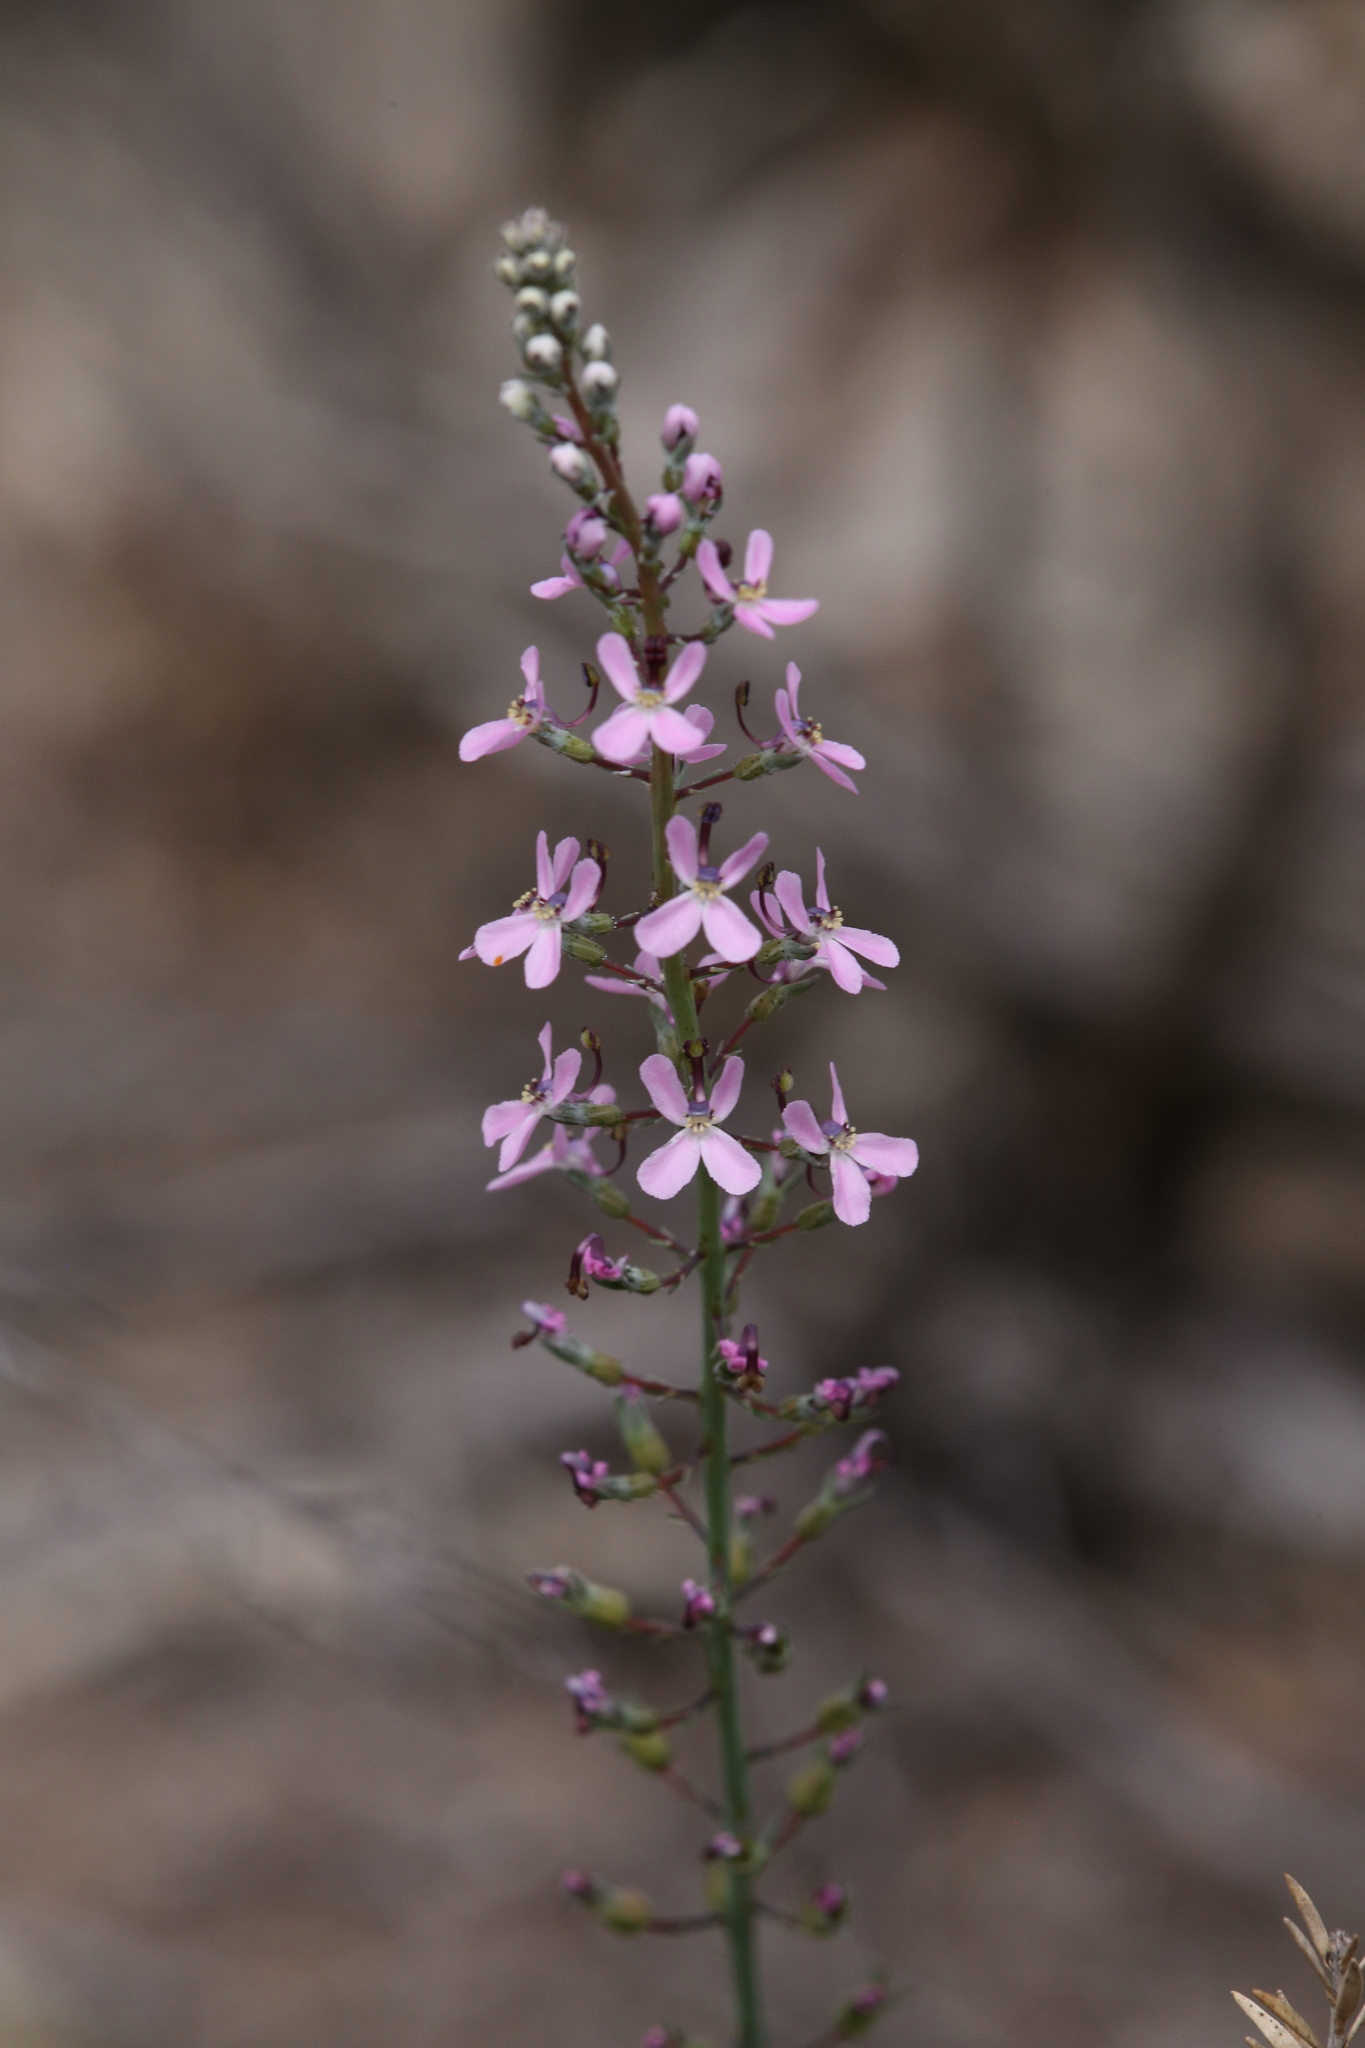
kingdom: Plantae
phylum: Tracheophyta
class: Magnoliopsida
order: Asterales
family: Stylidiaceae
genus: Stylidium
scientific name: Stylidium araeophyllum
